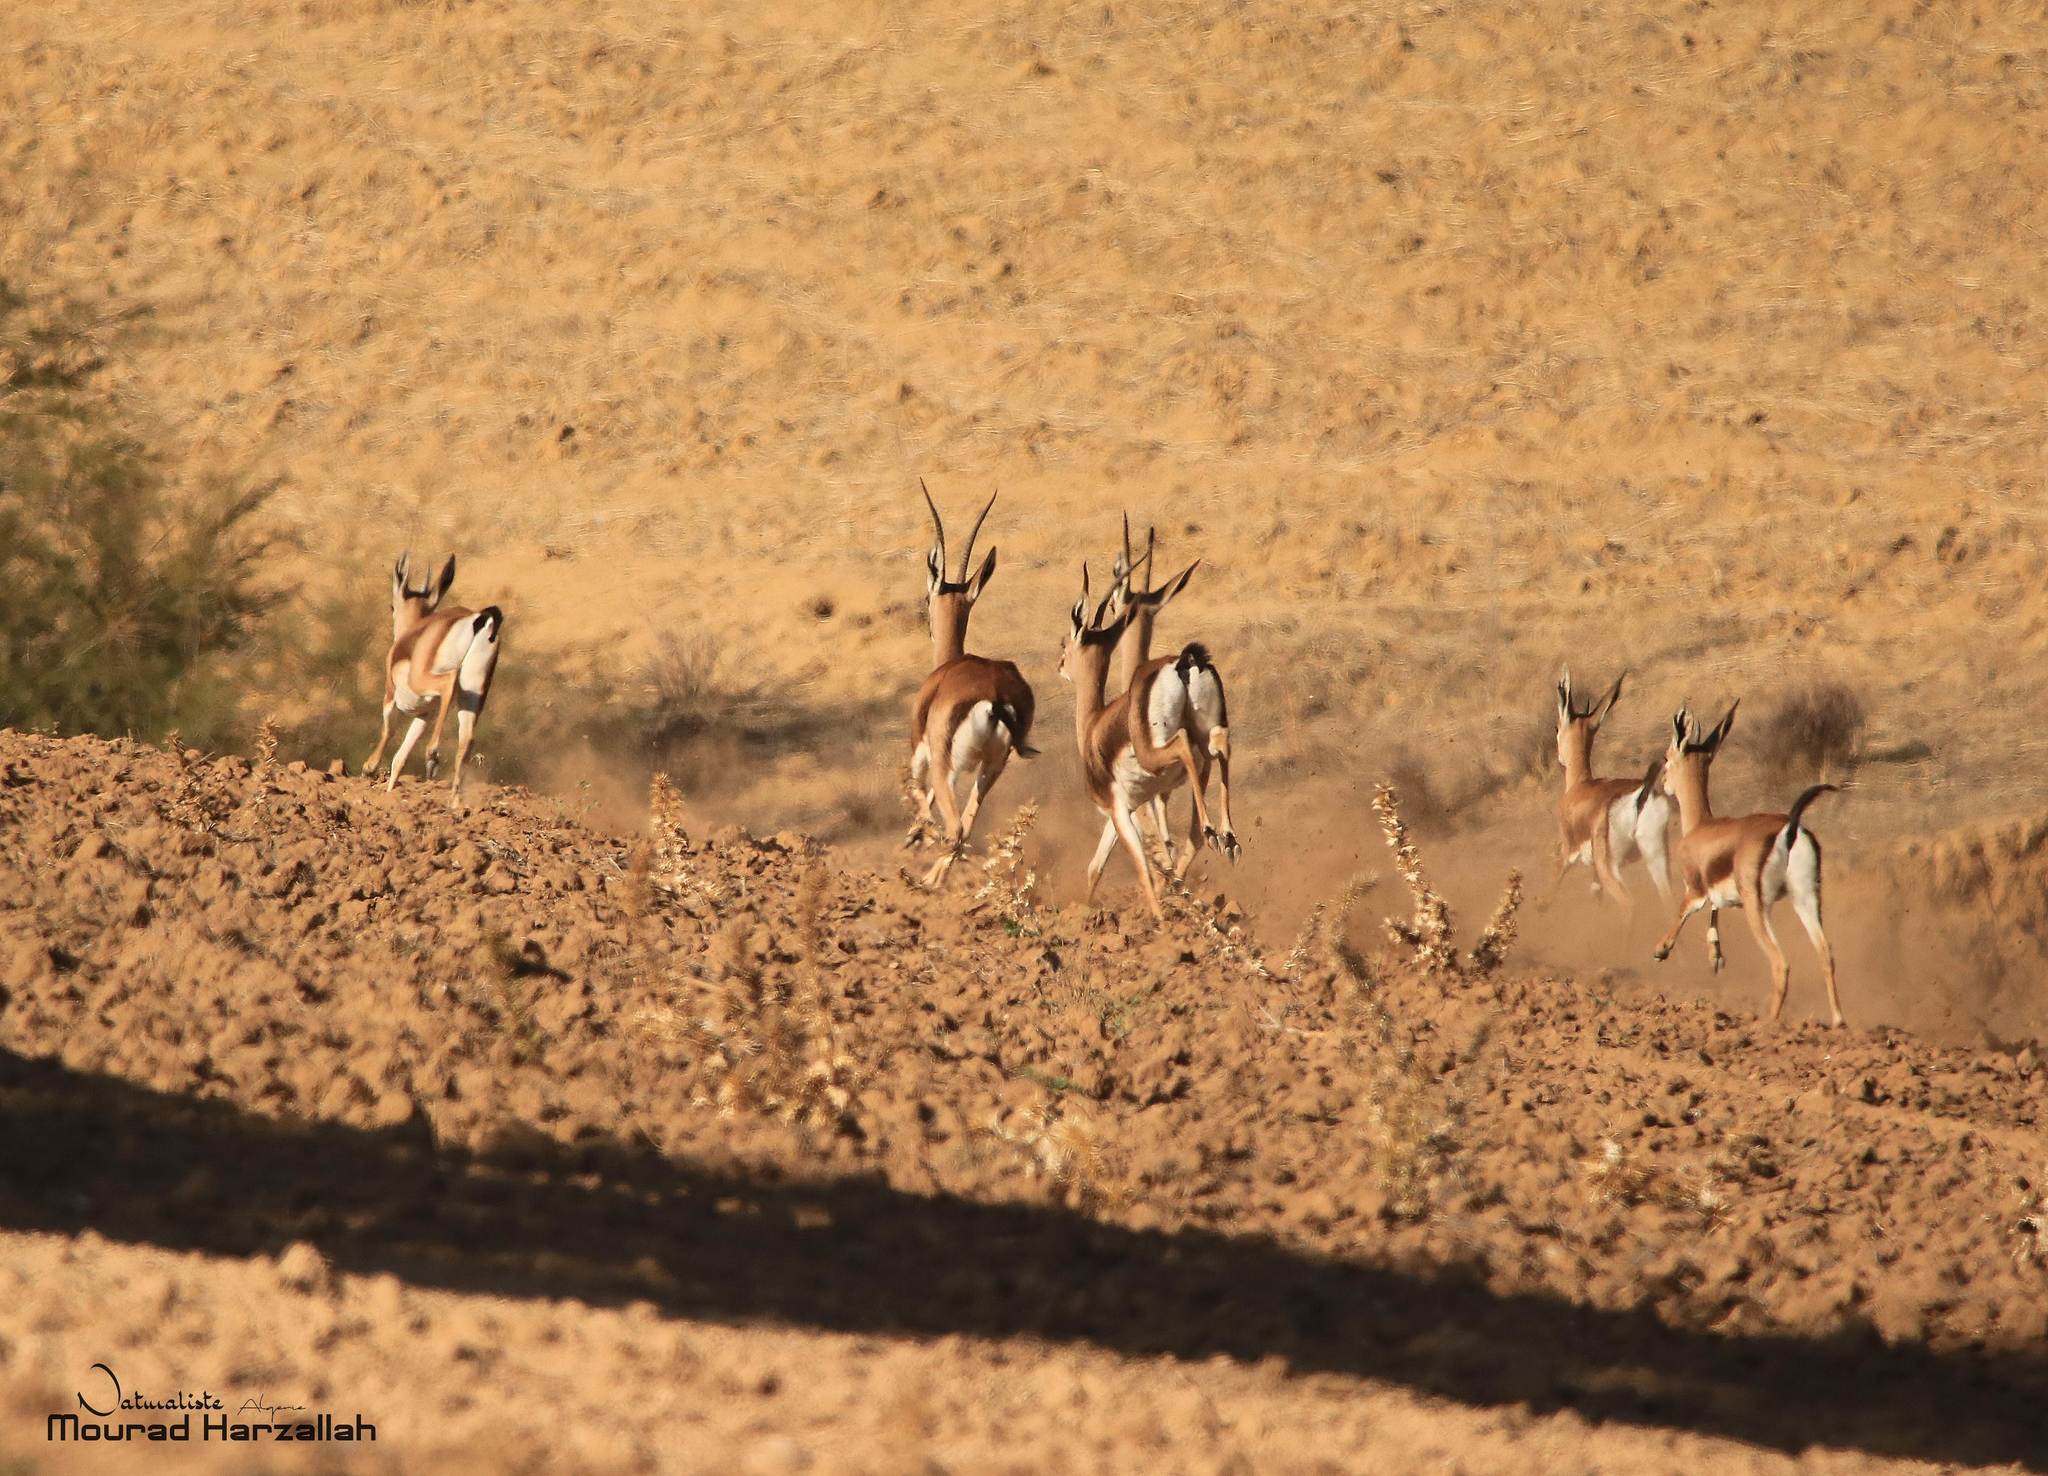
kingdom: Animalia
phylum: Chordata
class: Mammalia
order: Artiodactyla
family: Bovidae
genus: Gazella
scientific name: Gazella cuvieri
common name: Cuvier's gazelle
